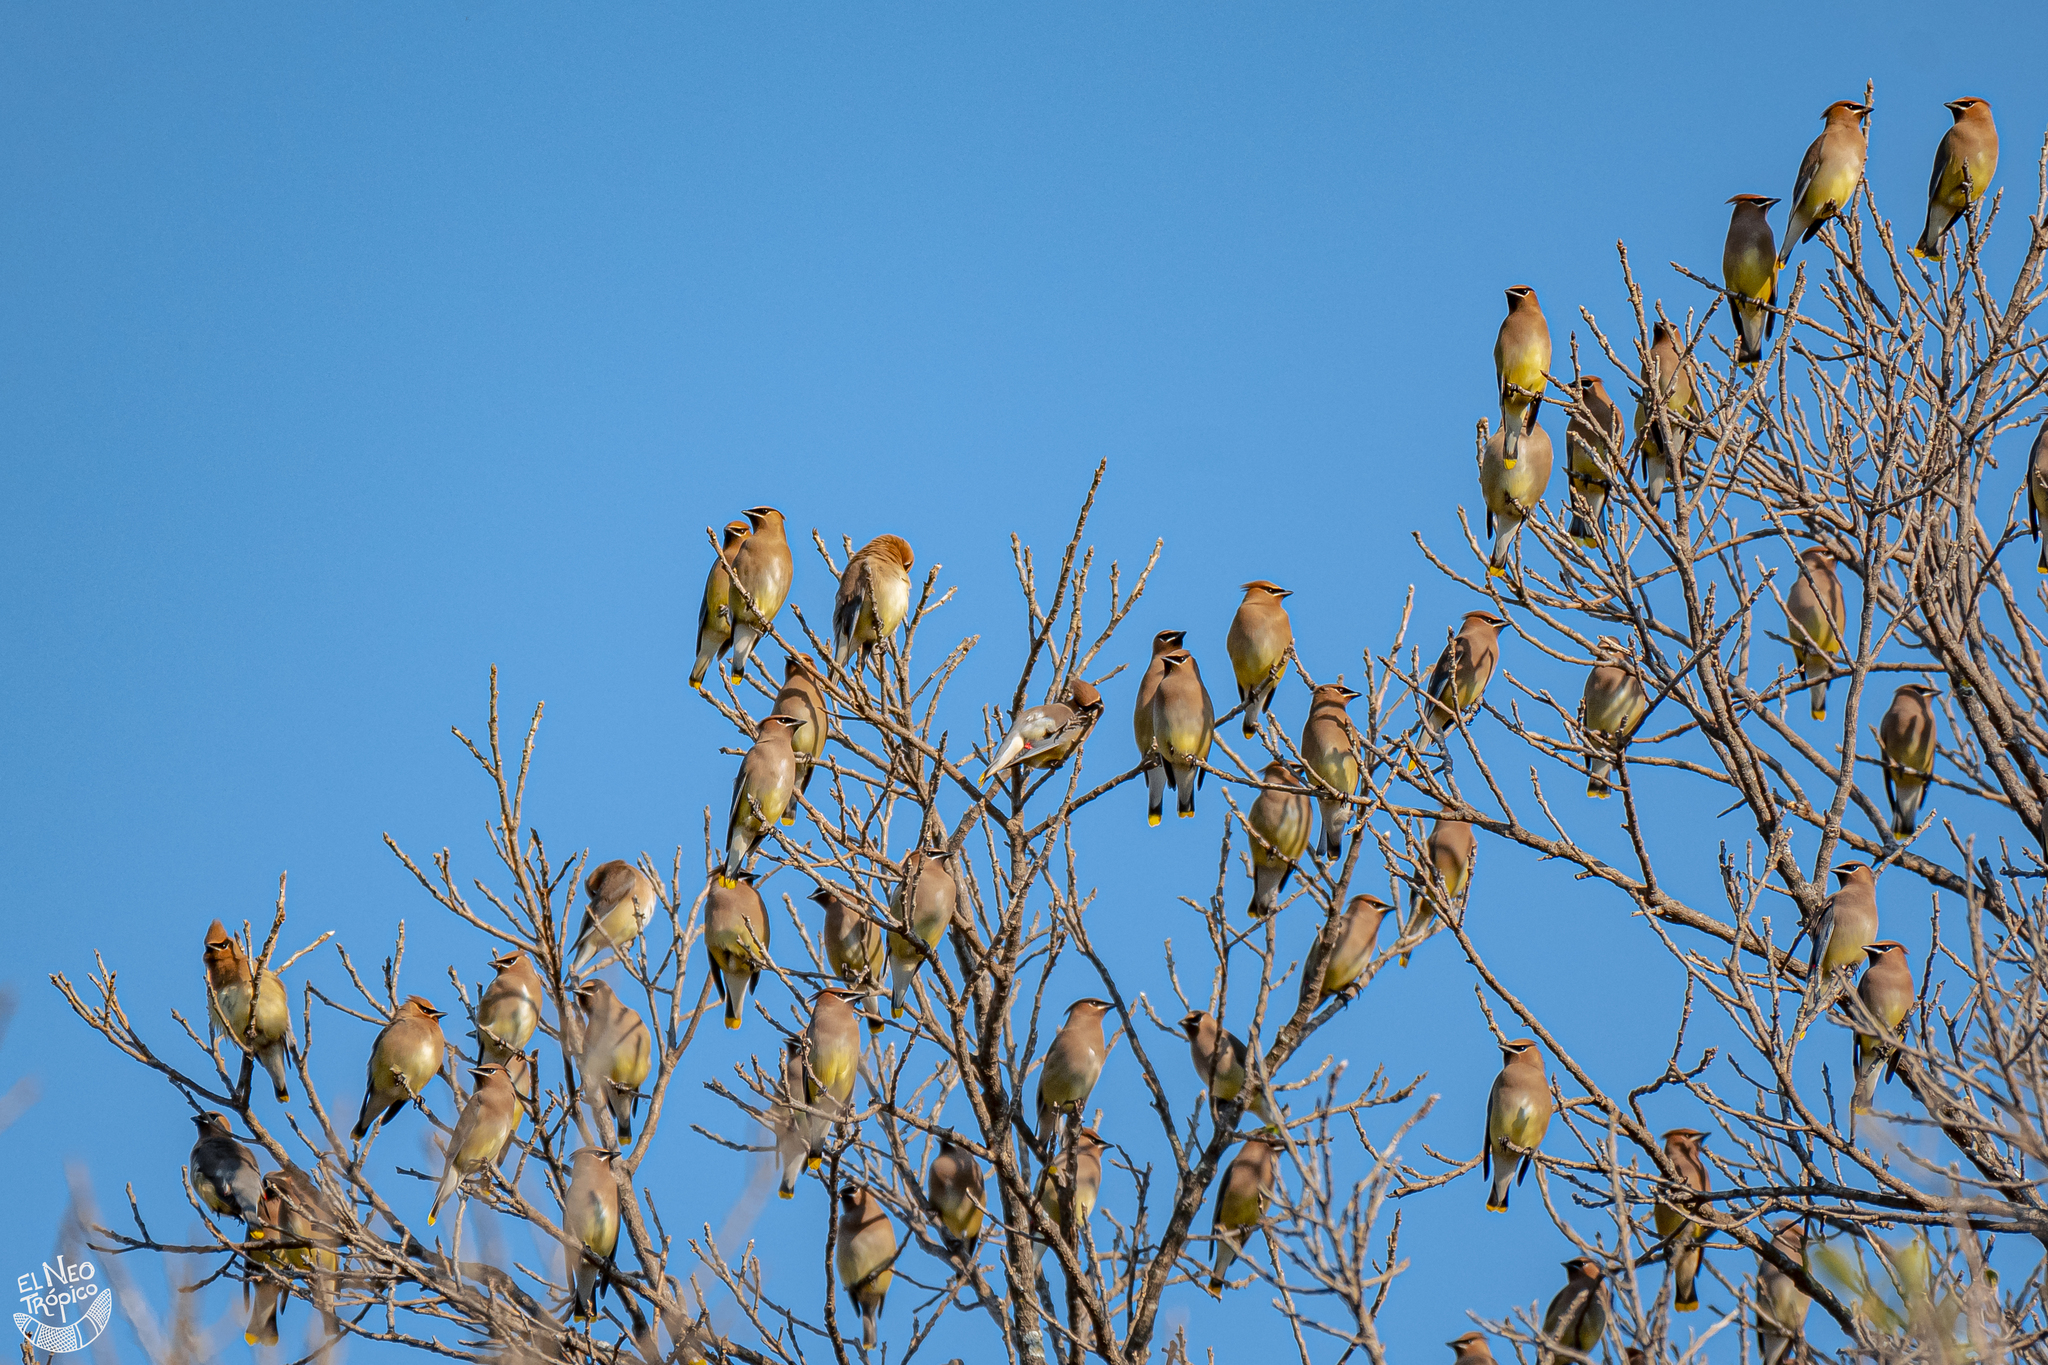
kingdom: Animalia
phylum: Chordata
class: Aves
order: Passeriformes
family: Bombycillidae
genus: Bombycilla
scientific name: Bombycilla cedrorum
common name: Cedar waxwing
